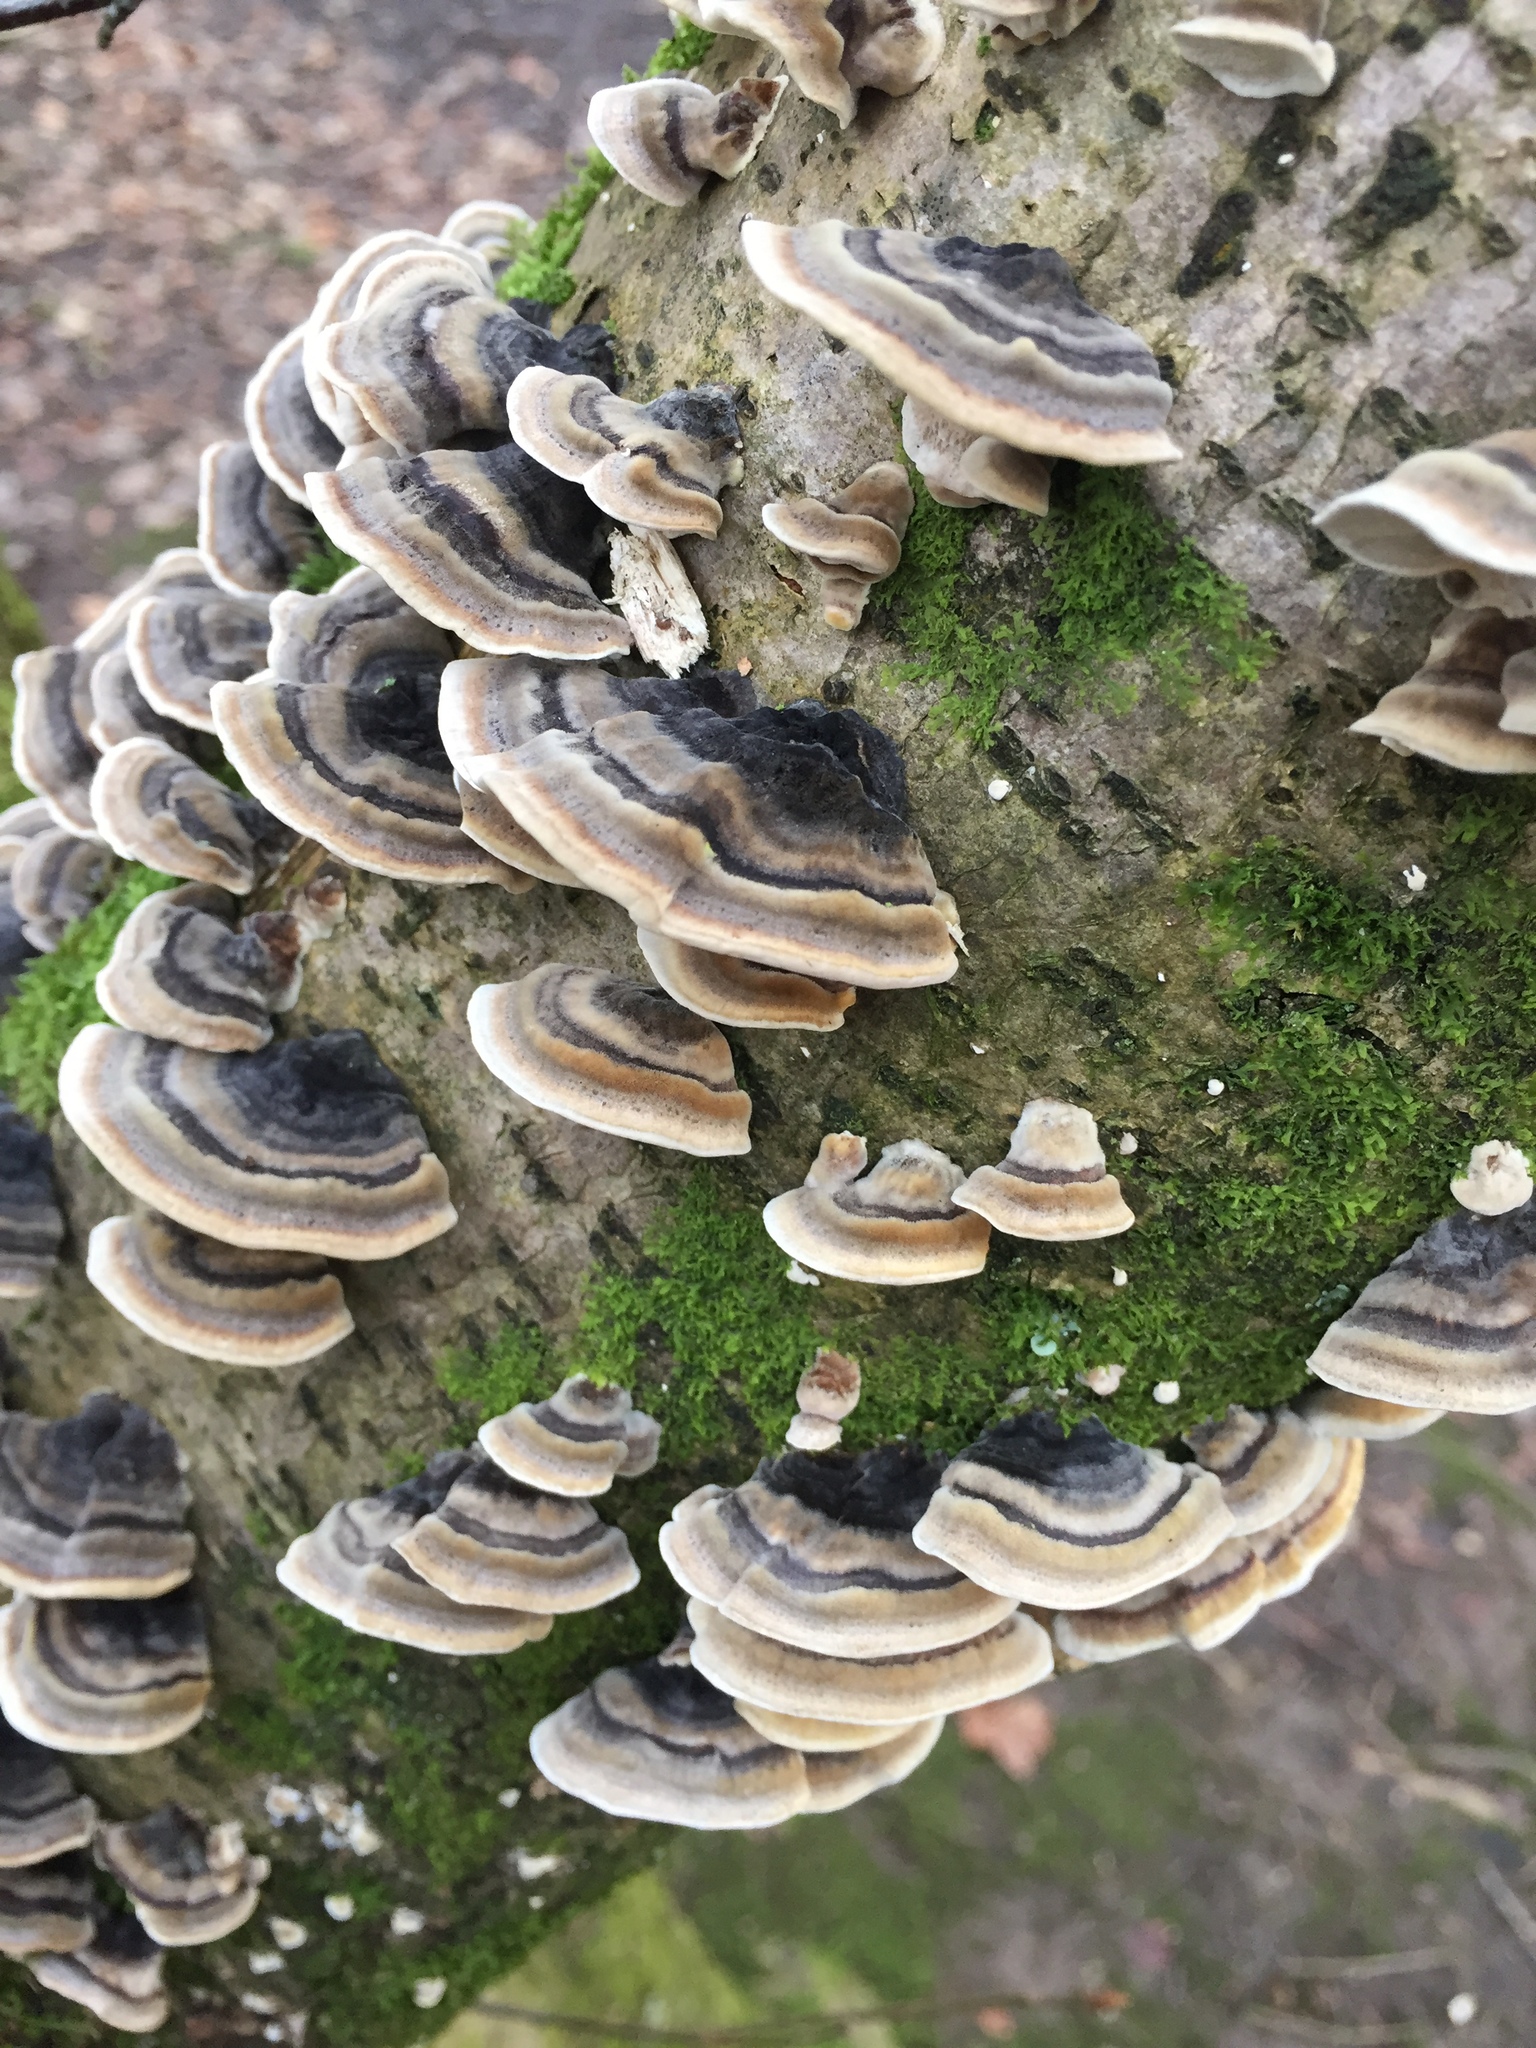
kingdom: Fungi
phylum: Basidiomycota
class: Agaricomycetes
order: Polyporales
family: Polyporaceae
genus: Trametes
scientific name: Trametes versicolor
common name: Turkeytail
